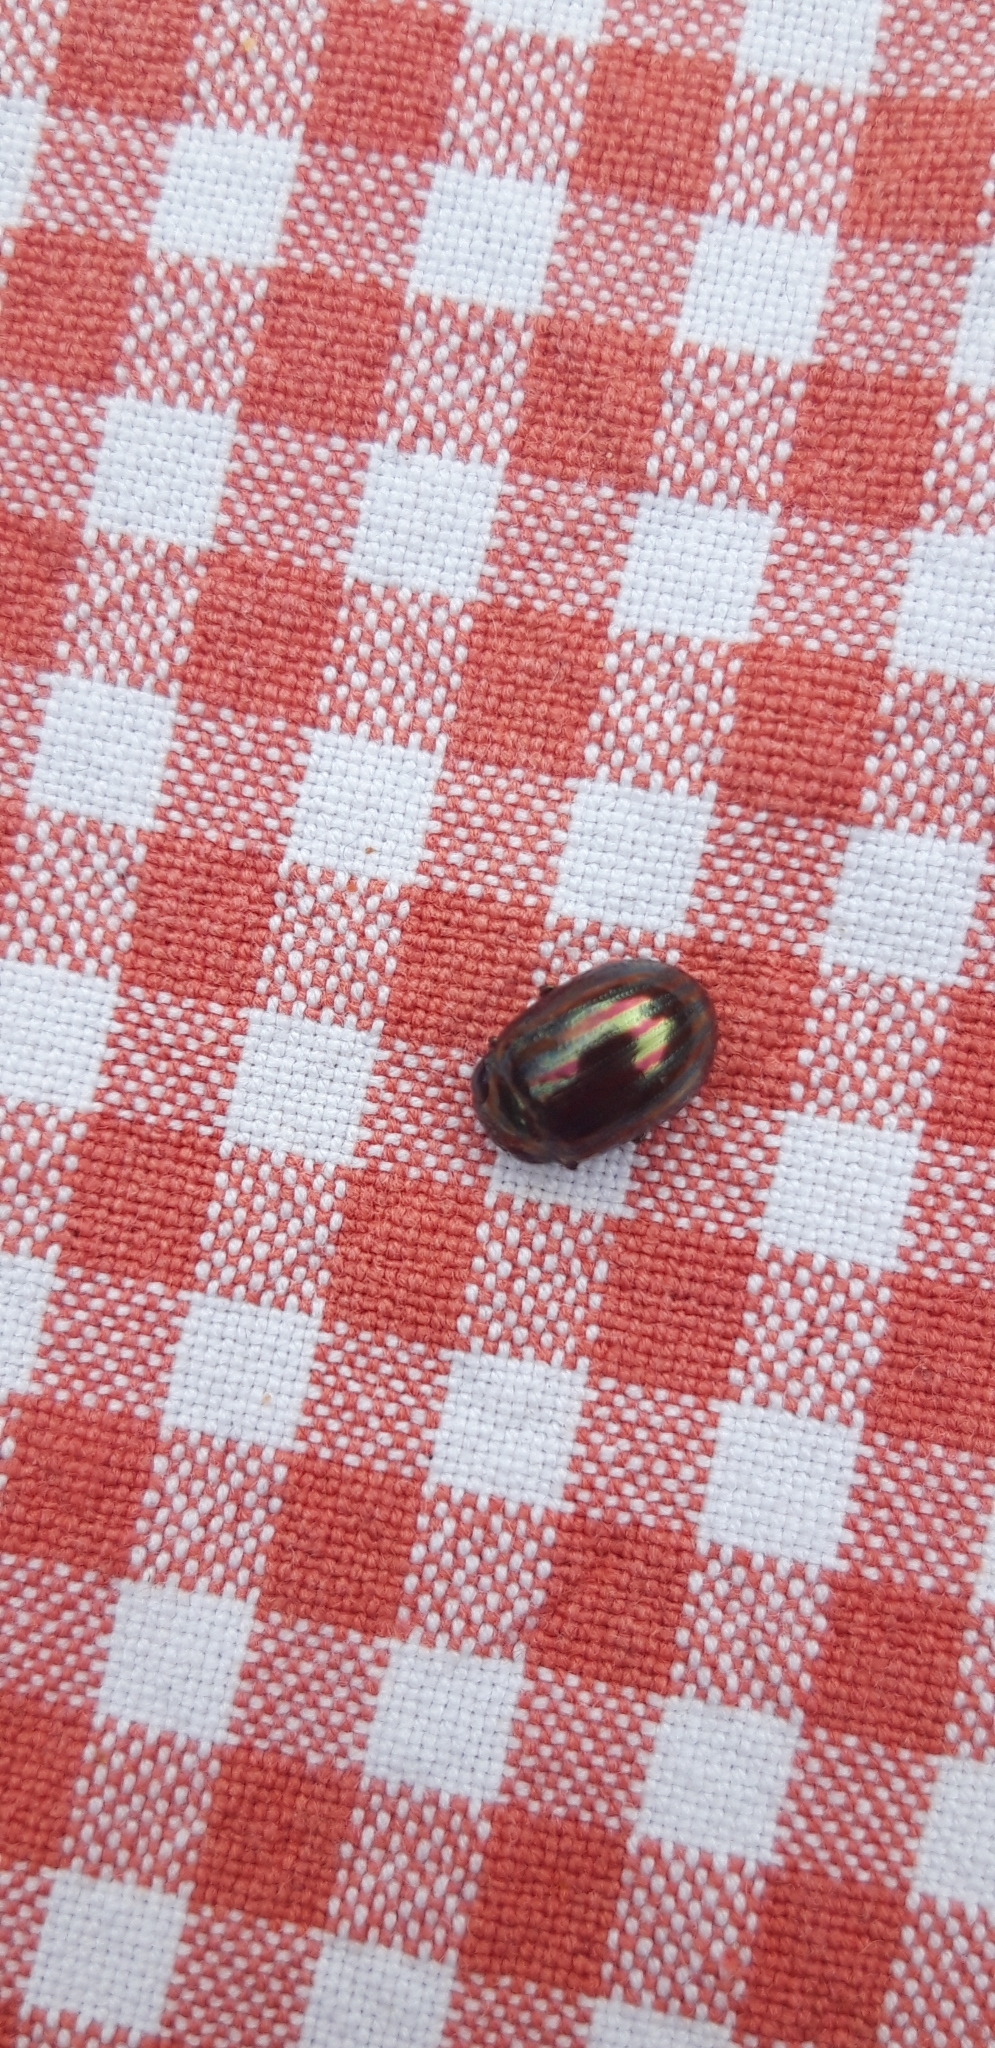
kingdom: Animalia
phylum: Arthropoda
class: Insecta
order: Coleoptera
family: Chrysomelidae
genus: Chrysolina
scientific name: Chrysolina americana
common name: Rosemary beetle
